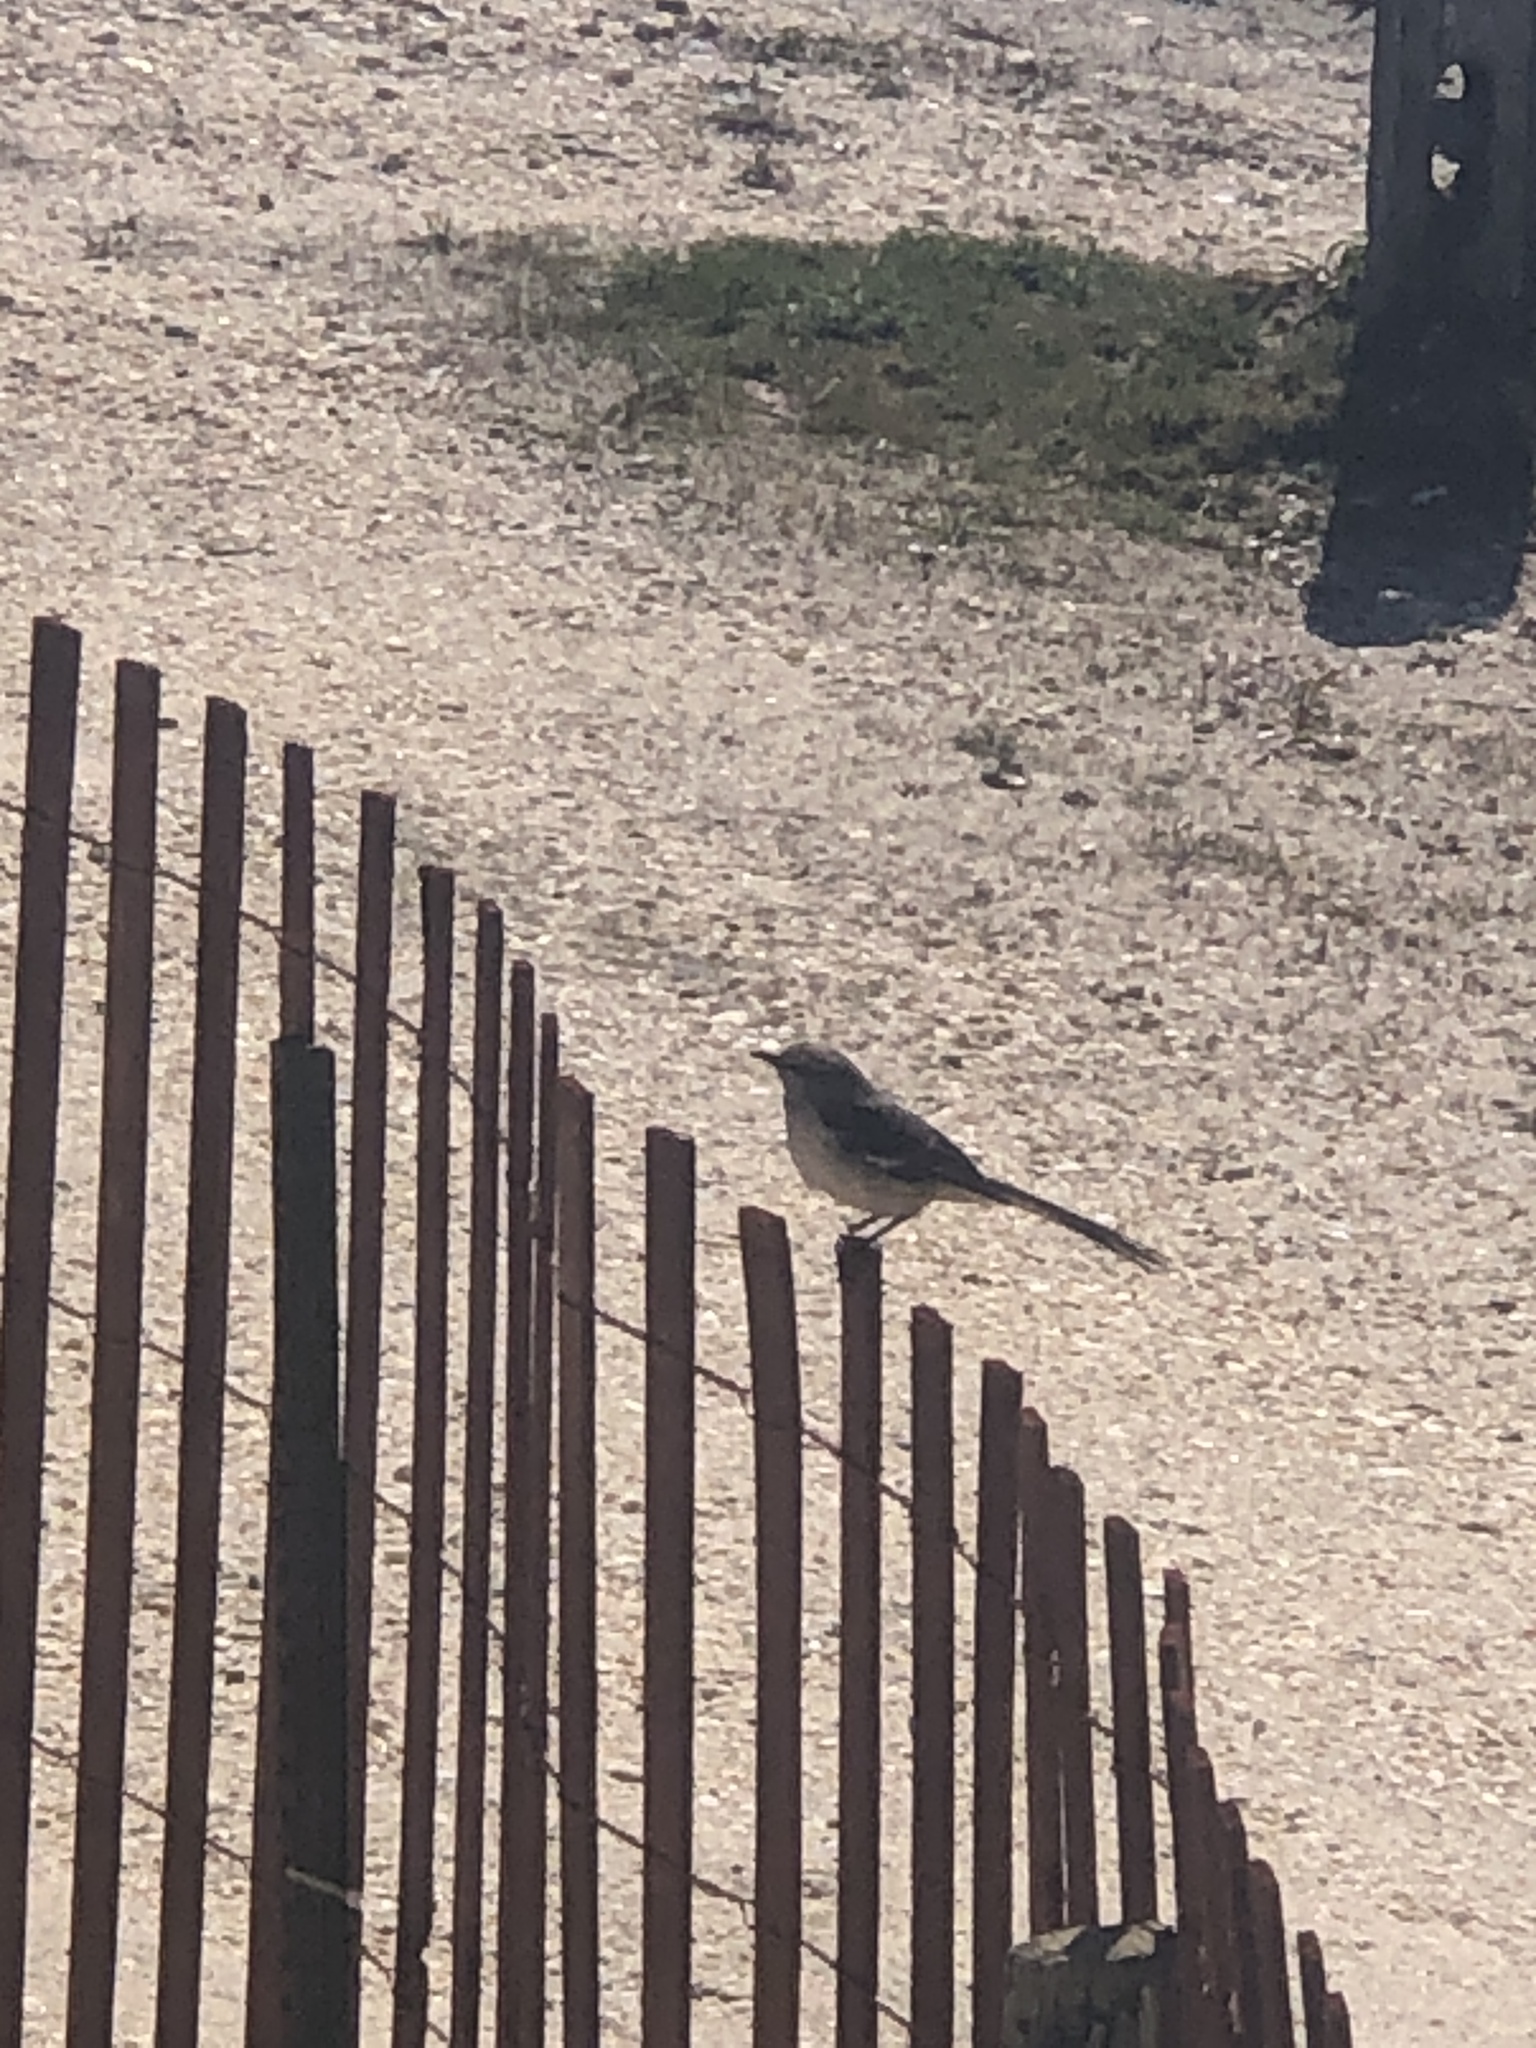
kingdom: Animalia
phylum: Chordata
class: Aves
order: Passeriformes
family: Mimidae
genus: Mimus
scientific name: Mimus polyglottos
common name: Northern mockingbird
